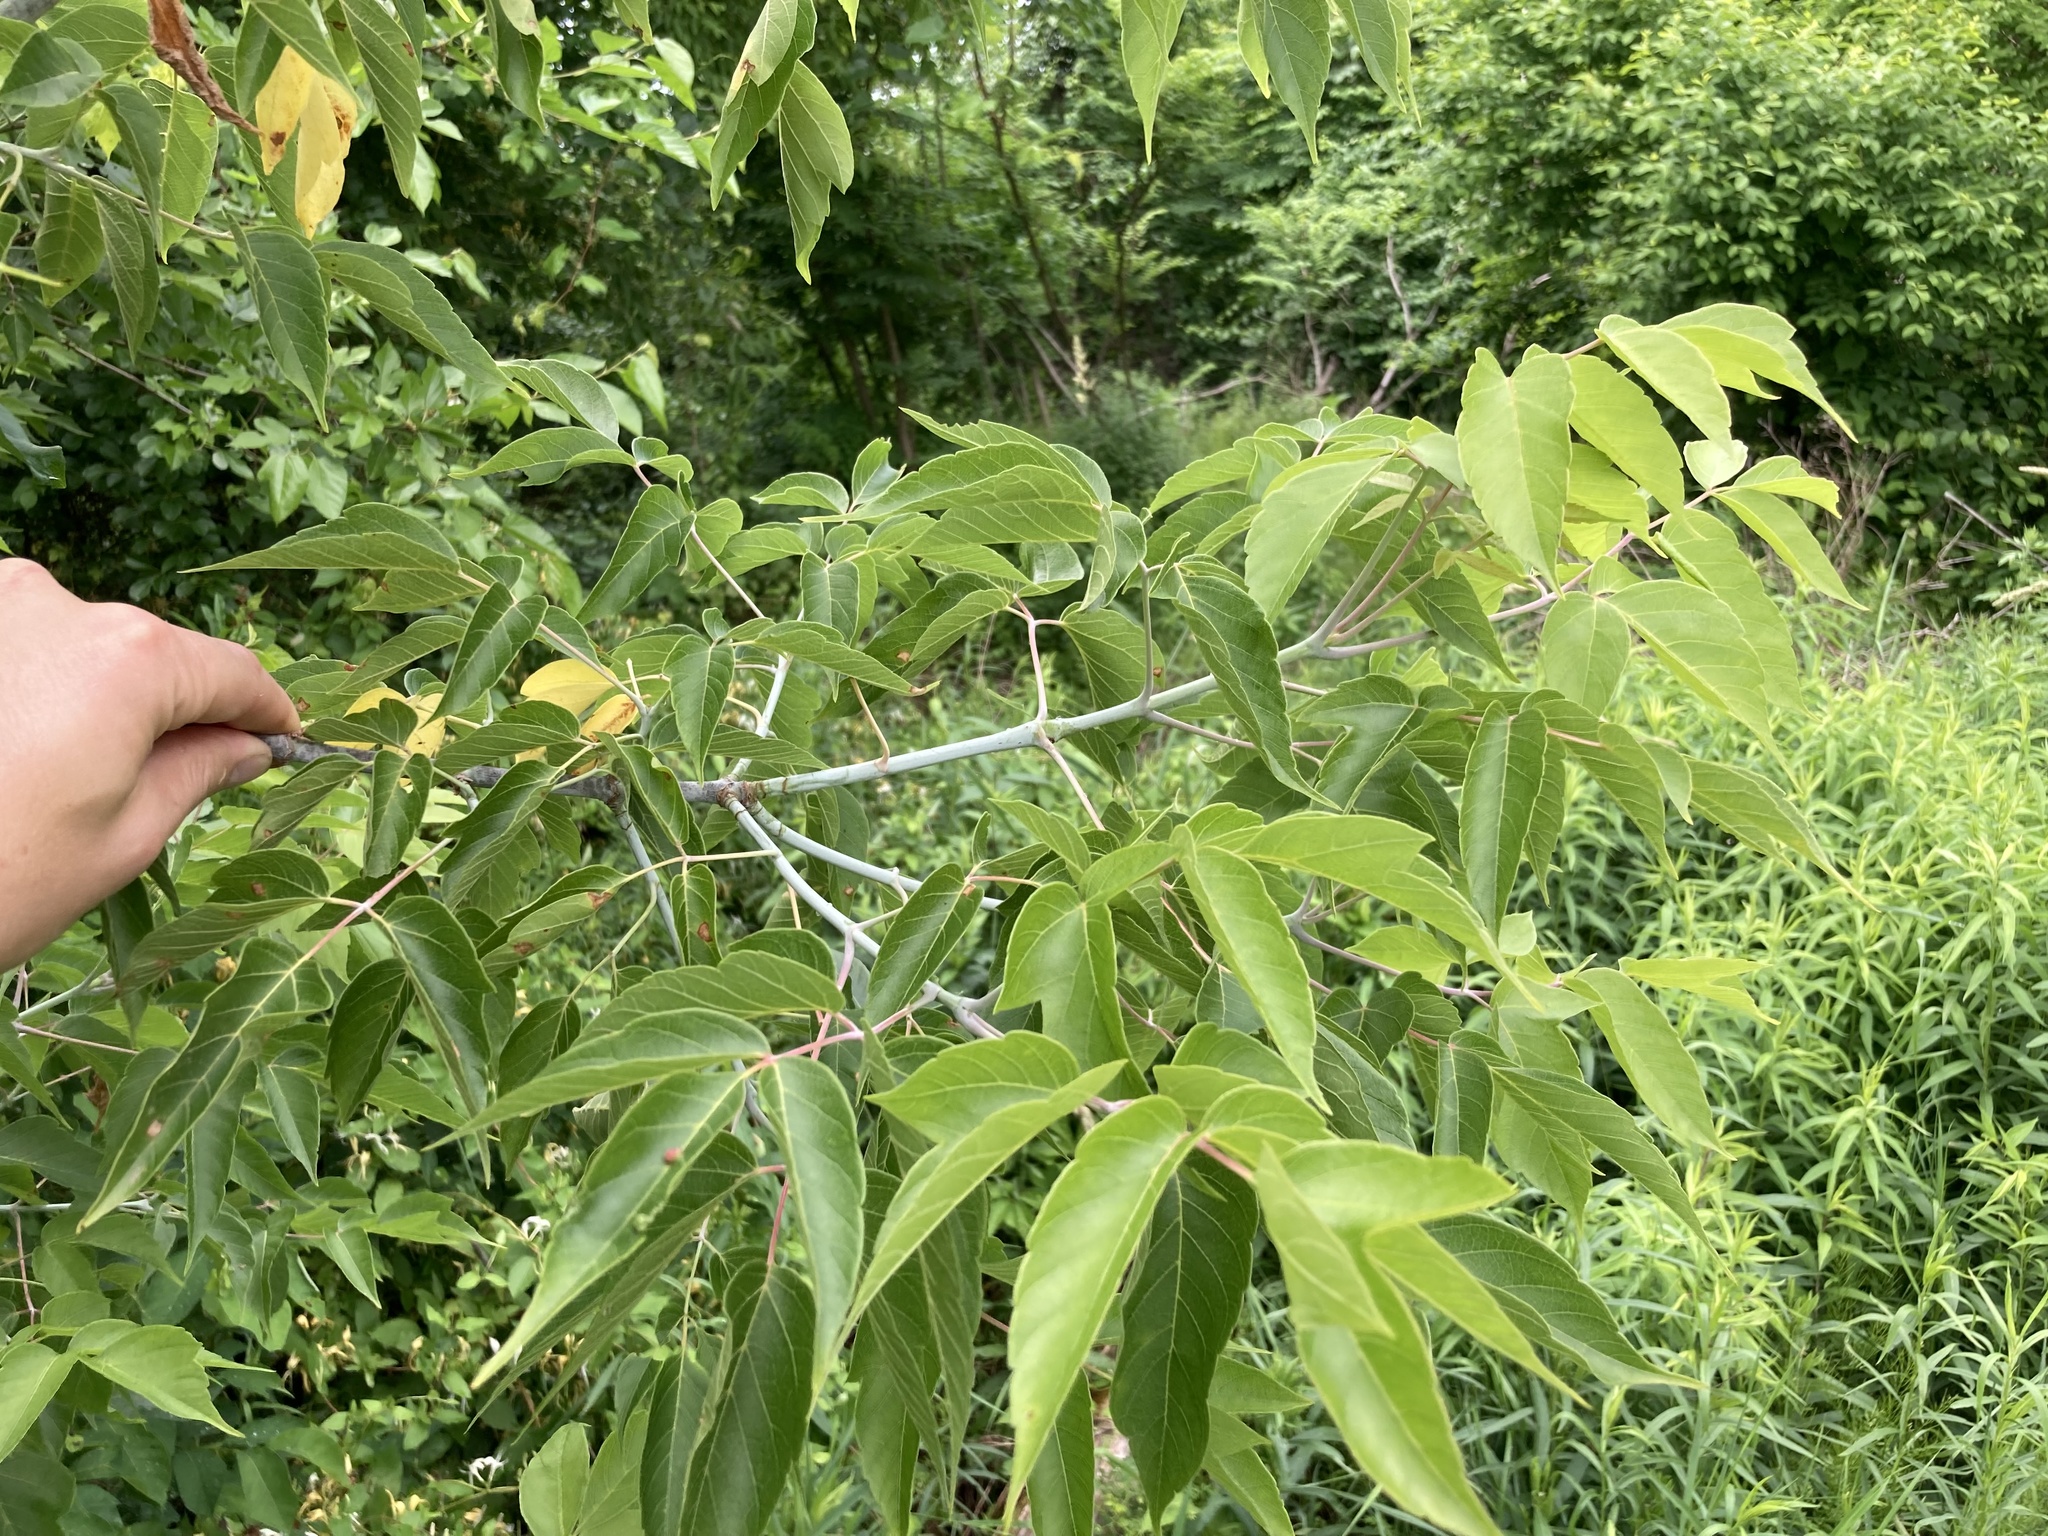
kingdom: Plantae
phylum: Tracheophyta
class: Magnoliopsida
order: Sapindales
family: Sapindaceae
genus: Acer
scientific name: Acer negundo
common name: Ashleaf maple
